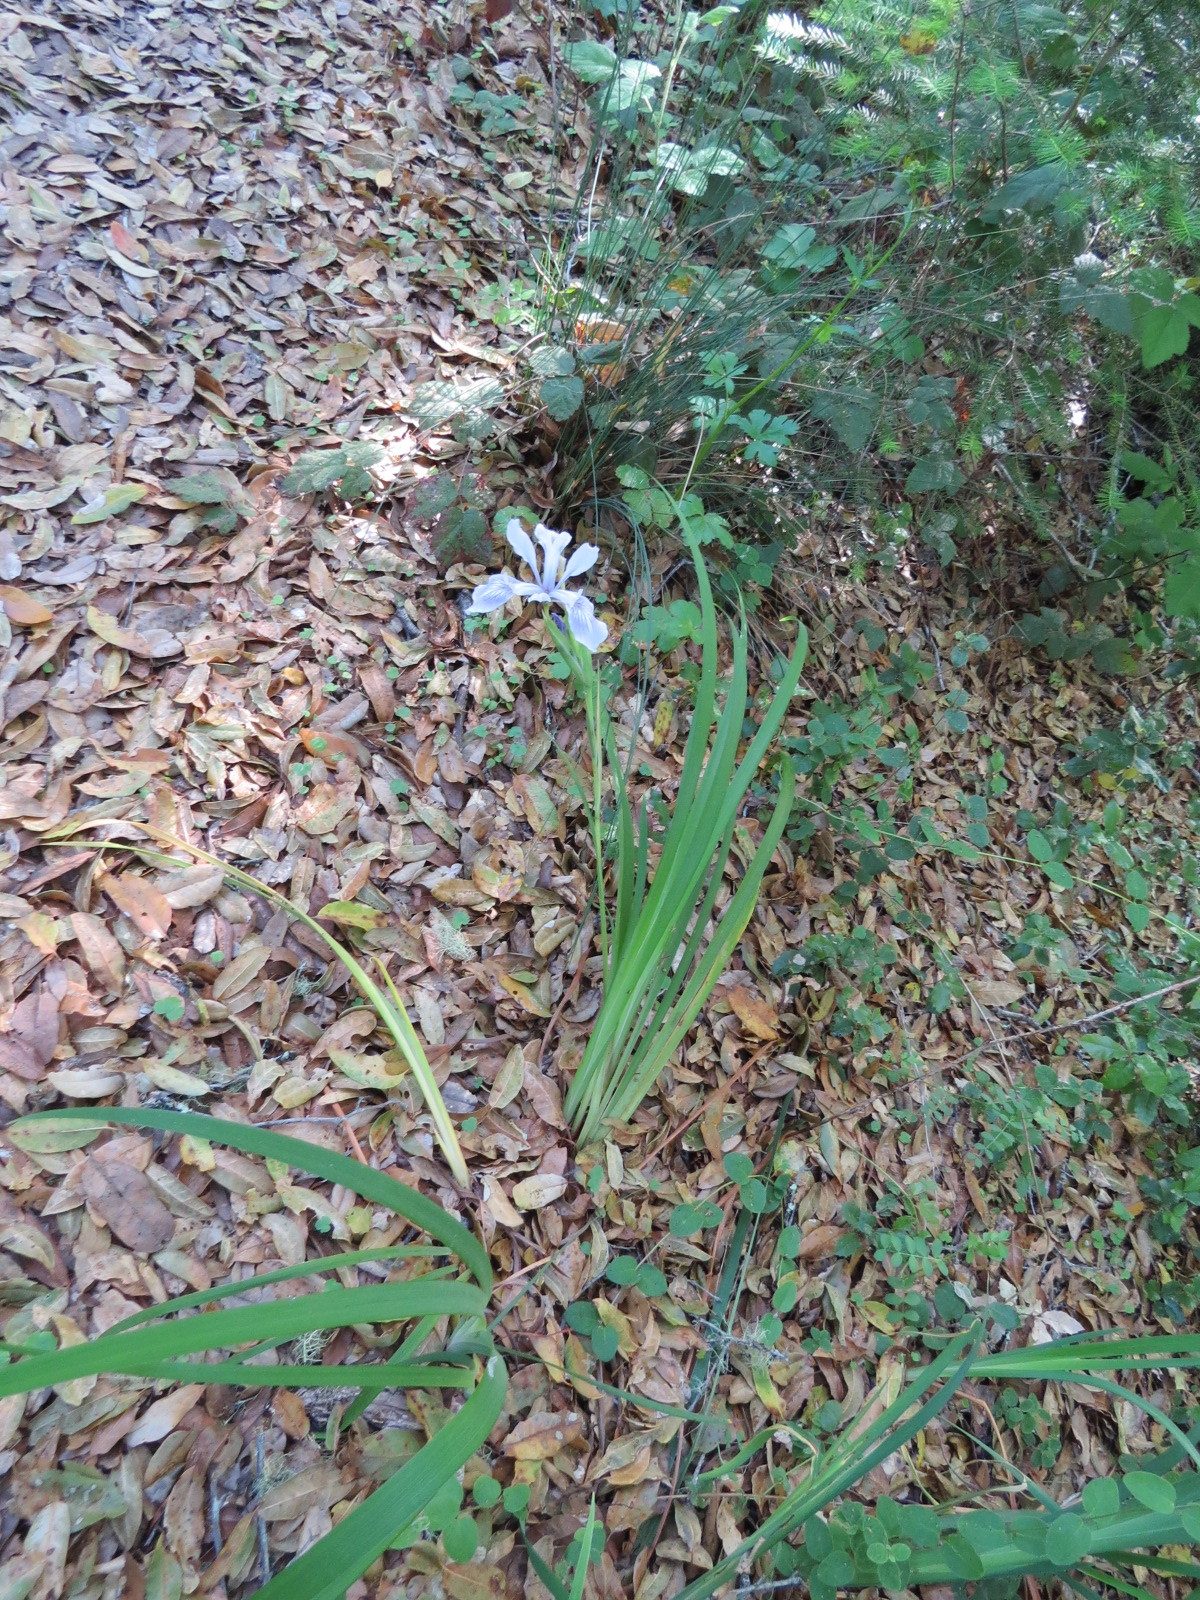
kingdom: Plantae
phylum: Tracheophyta
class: Liliopsida
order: Asparagales
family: Iridaceae
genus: Iris
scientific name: Iris douglasiana
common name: Marin iris
